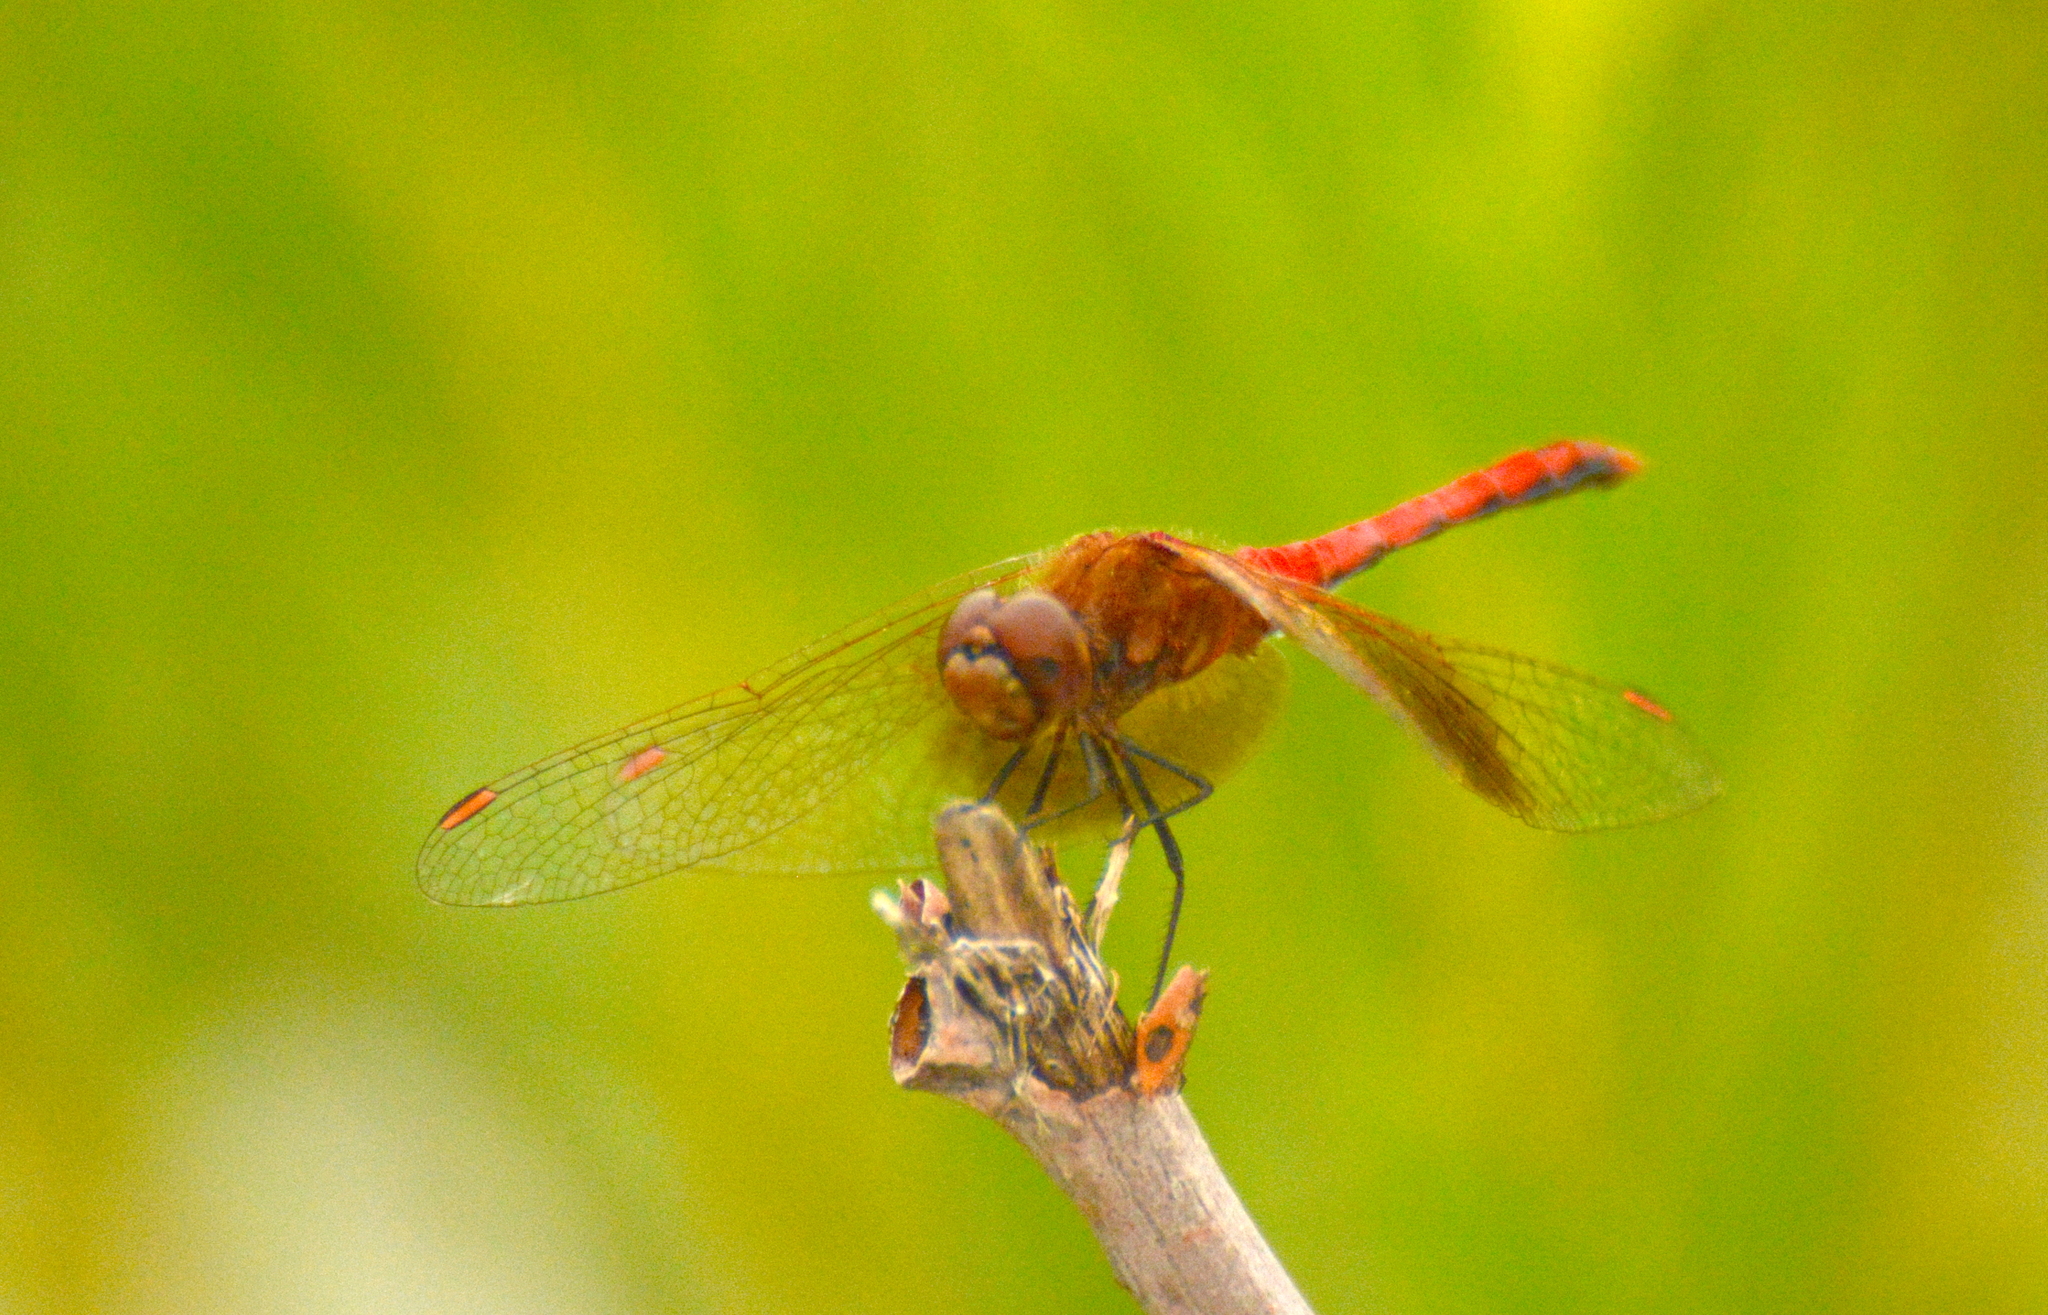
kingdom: Animalia
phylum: Arthropoda
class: Insecta
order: Odonata
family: Libellulidae
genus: Sympetrum
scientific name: Sympetrum semicinctum
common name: Band-winged meadowhawk
